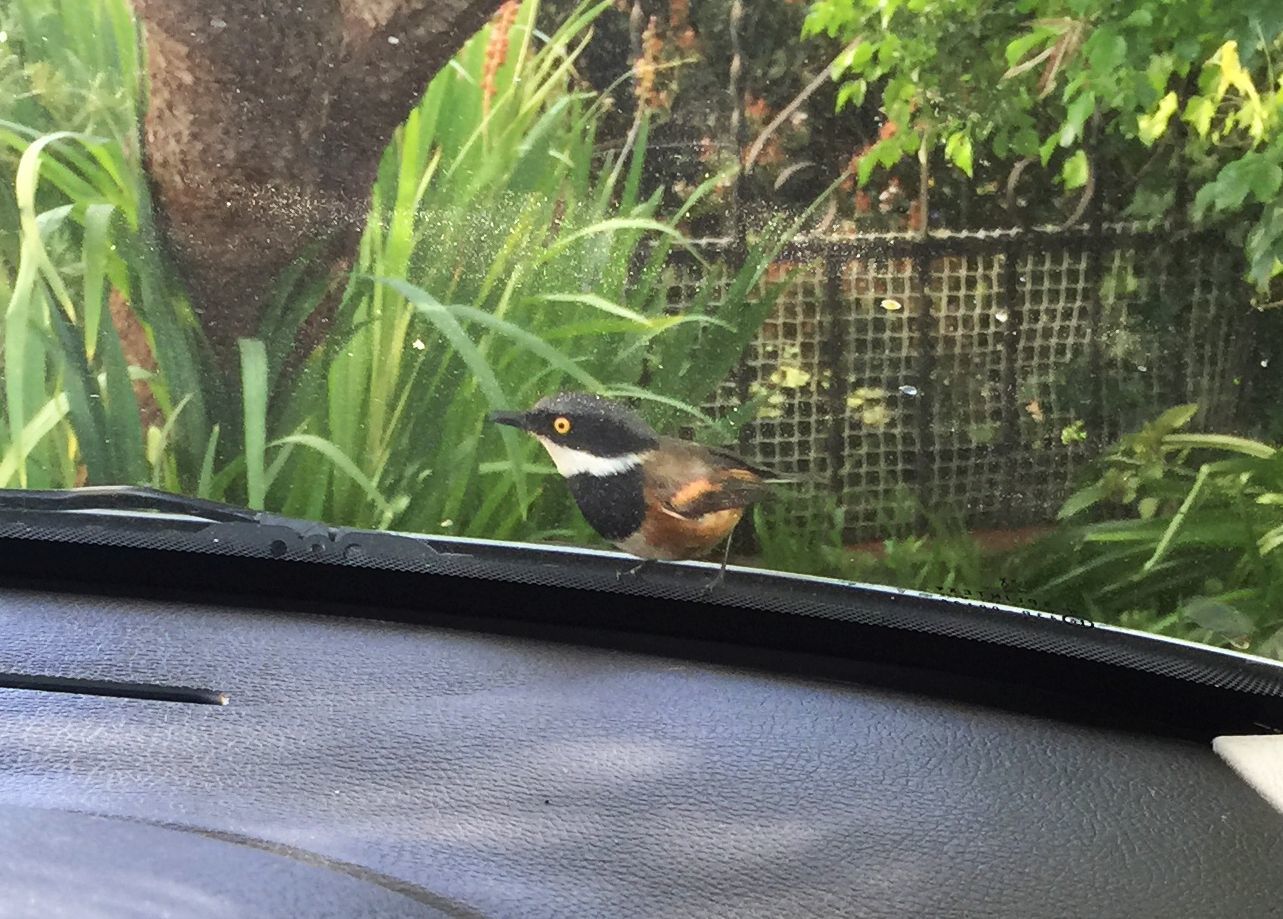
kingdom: Animalia
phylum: Chordata
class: Aves
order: Passeriformes
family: Platysteiridae
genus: Batis
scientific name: Batis capensis
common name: Cape batis
